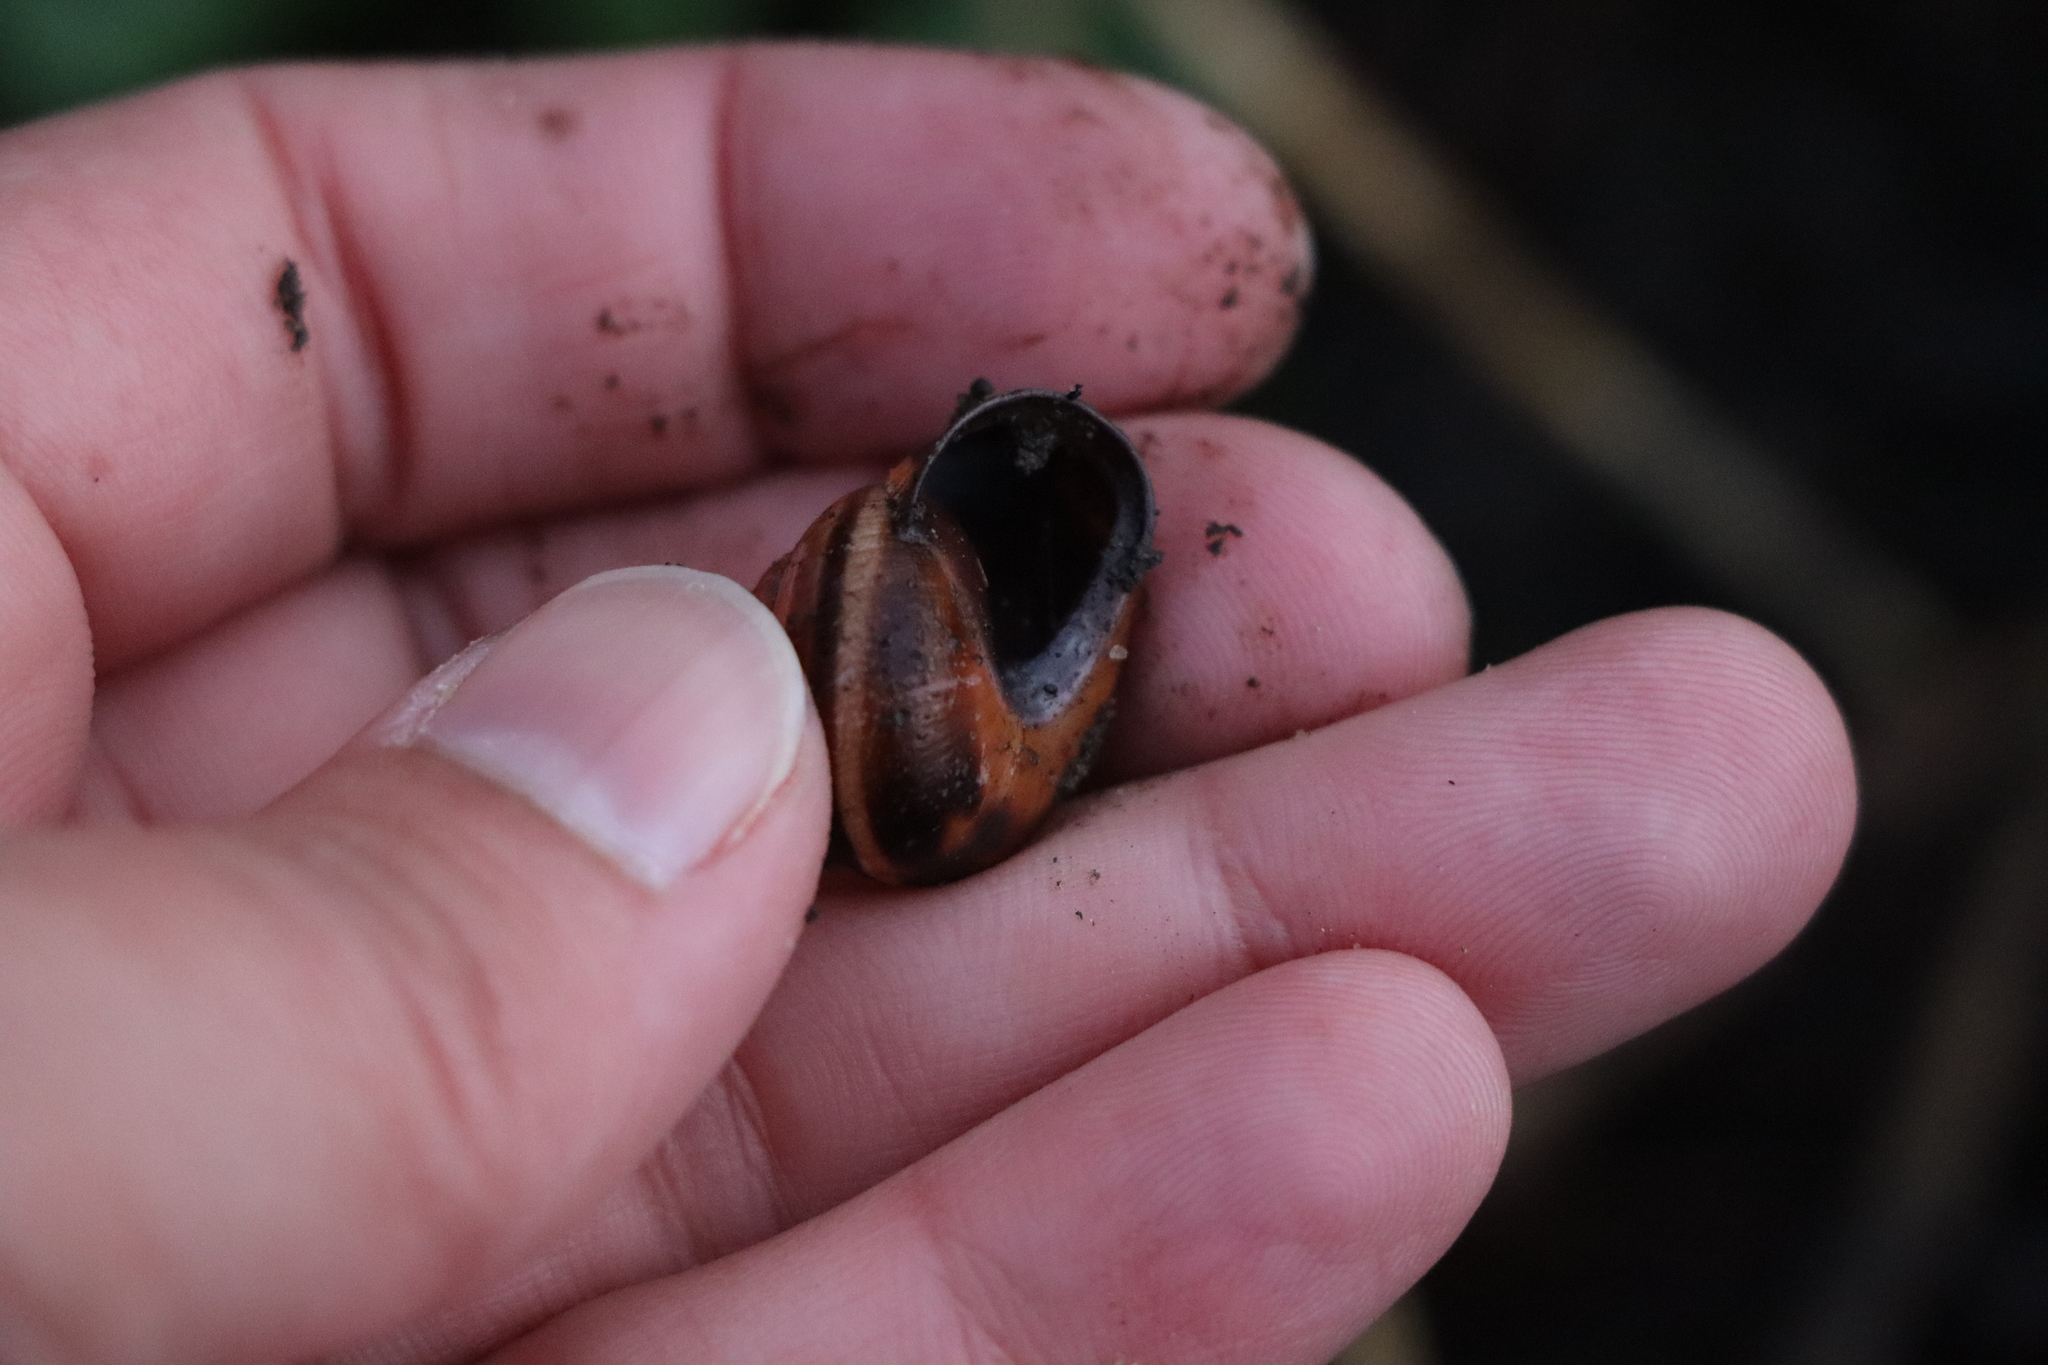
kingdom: Animalia
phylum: Mollusca
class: Gastropoda
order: Stylommatophora
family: Helicidae
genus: Cepaea
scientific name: Cepaea nemoralis
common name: Grovesnail
